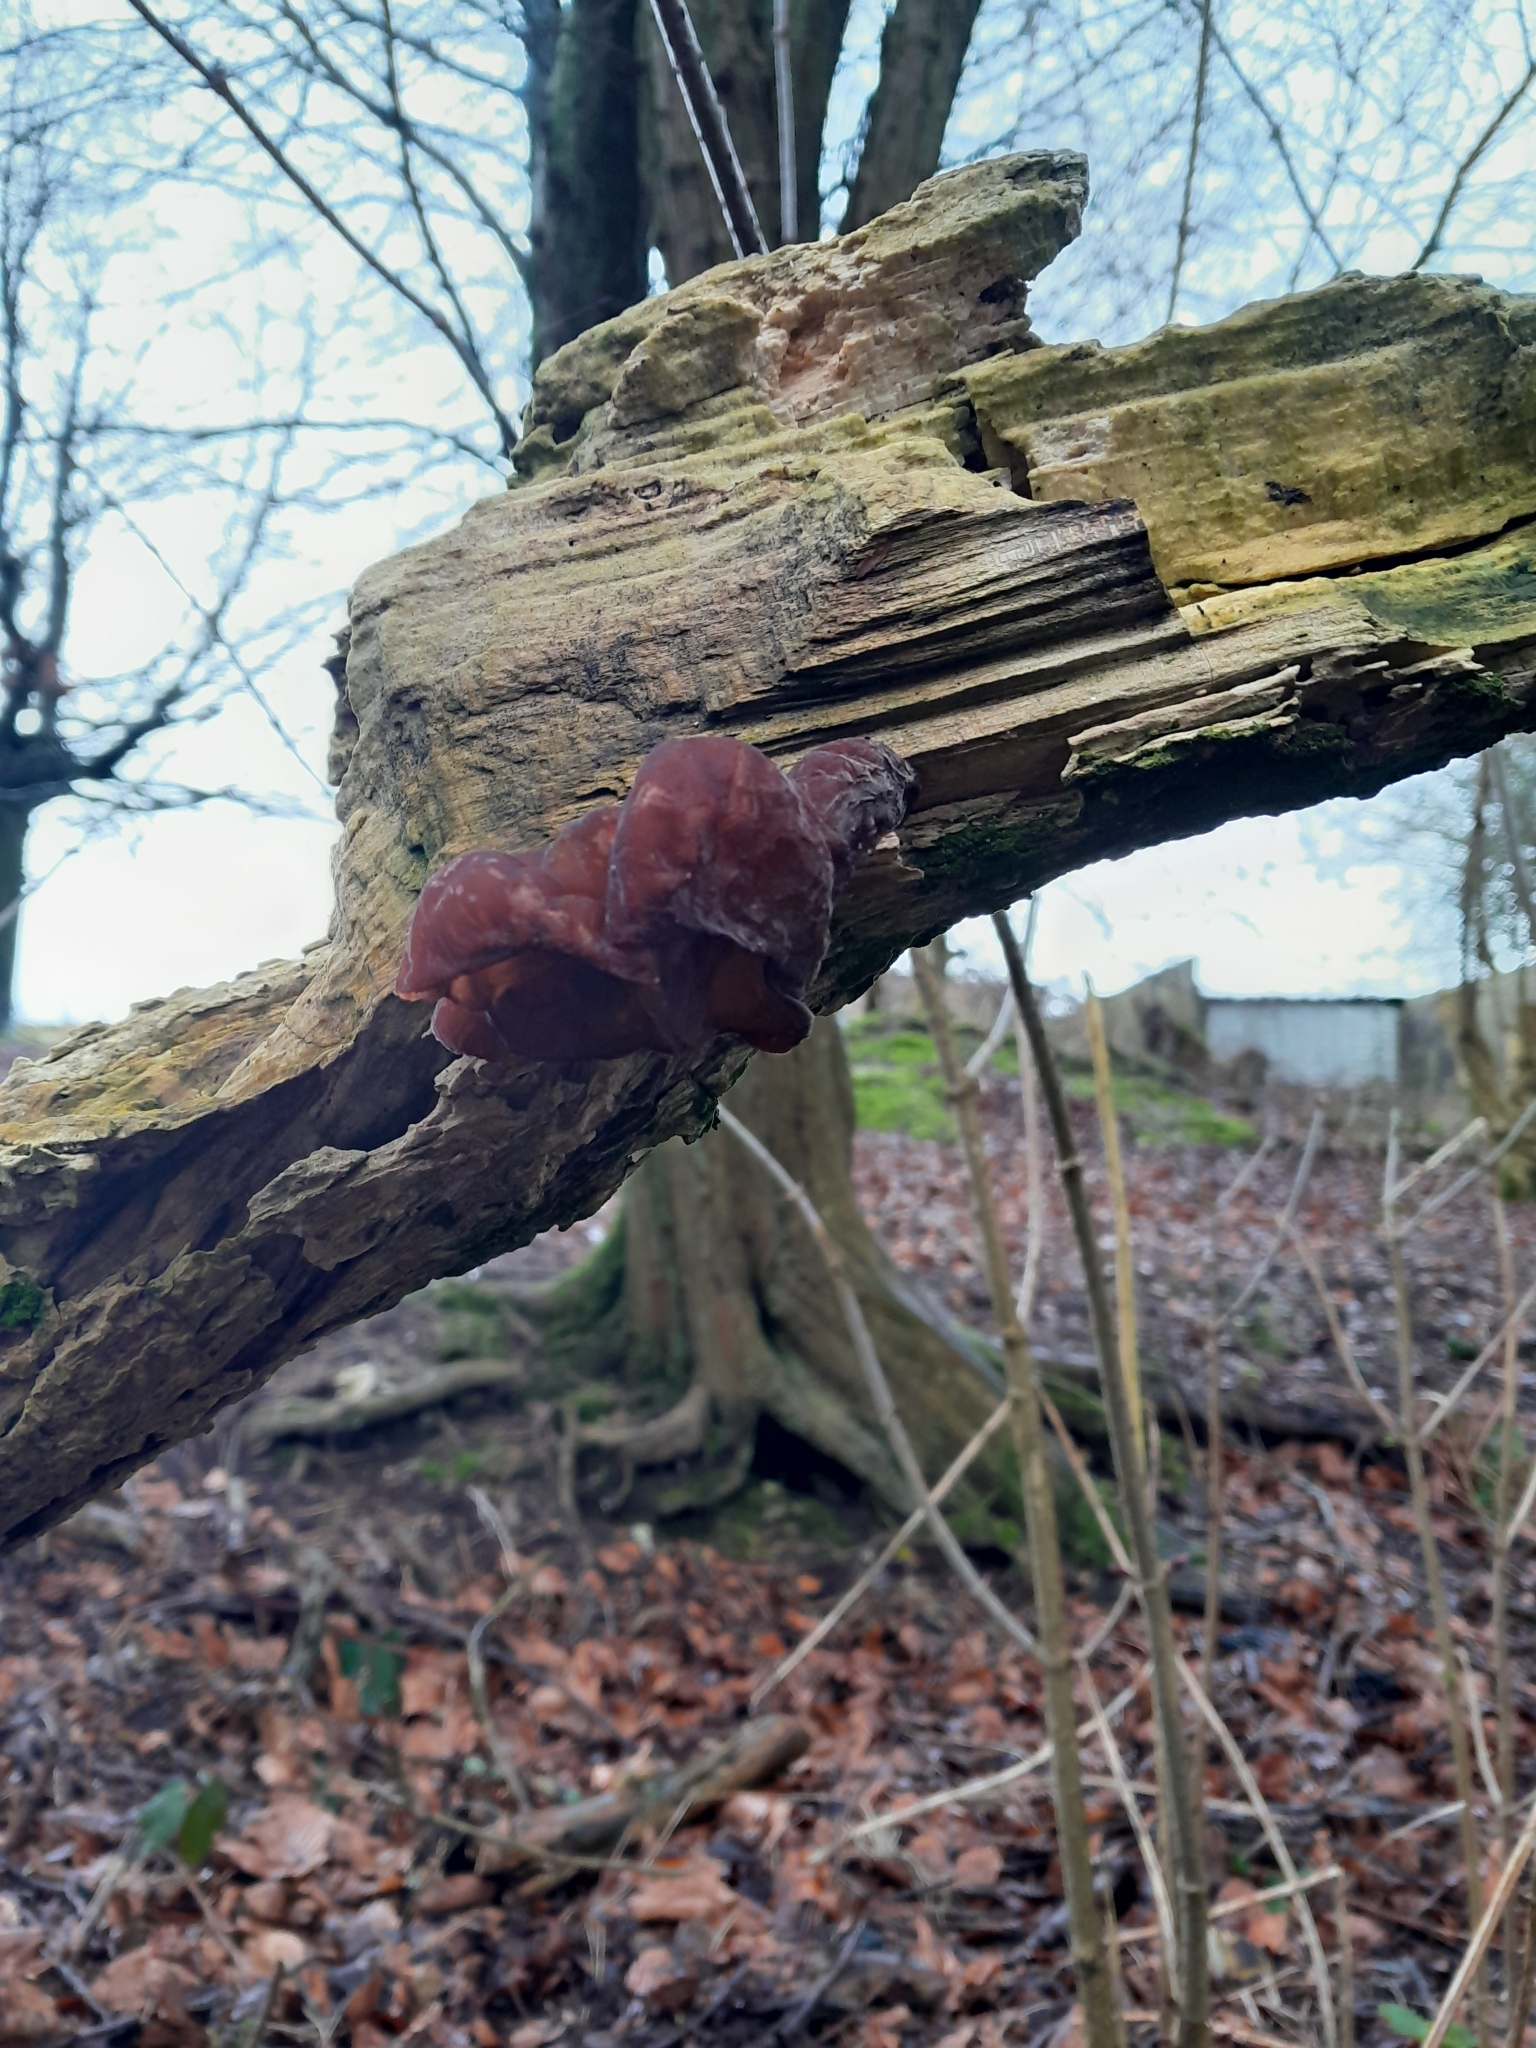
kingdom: Fungi
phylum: Basidiomycota
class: Agaricomycetes
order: Auriculariales
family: Auriculariaceae
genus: Auricularia
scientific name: Auricularia auricula-judae
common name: Jelly ear
